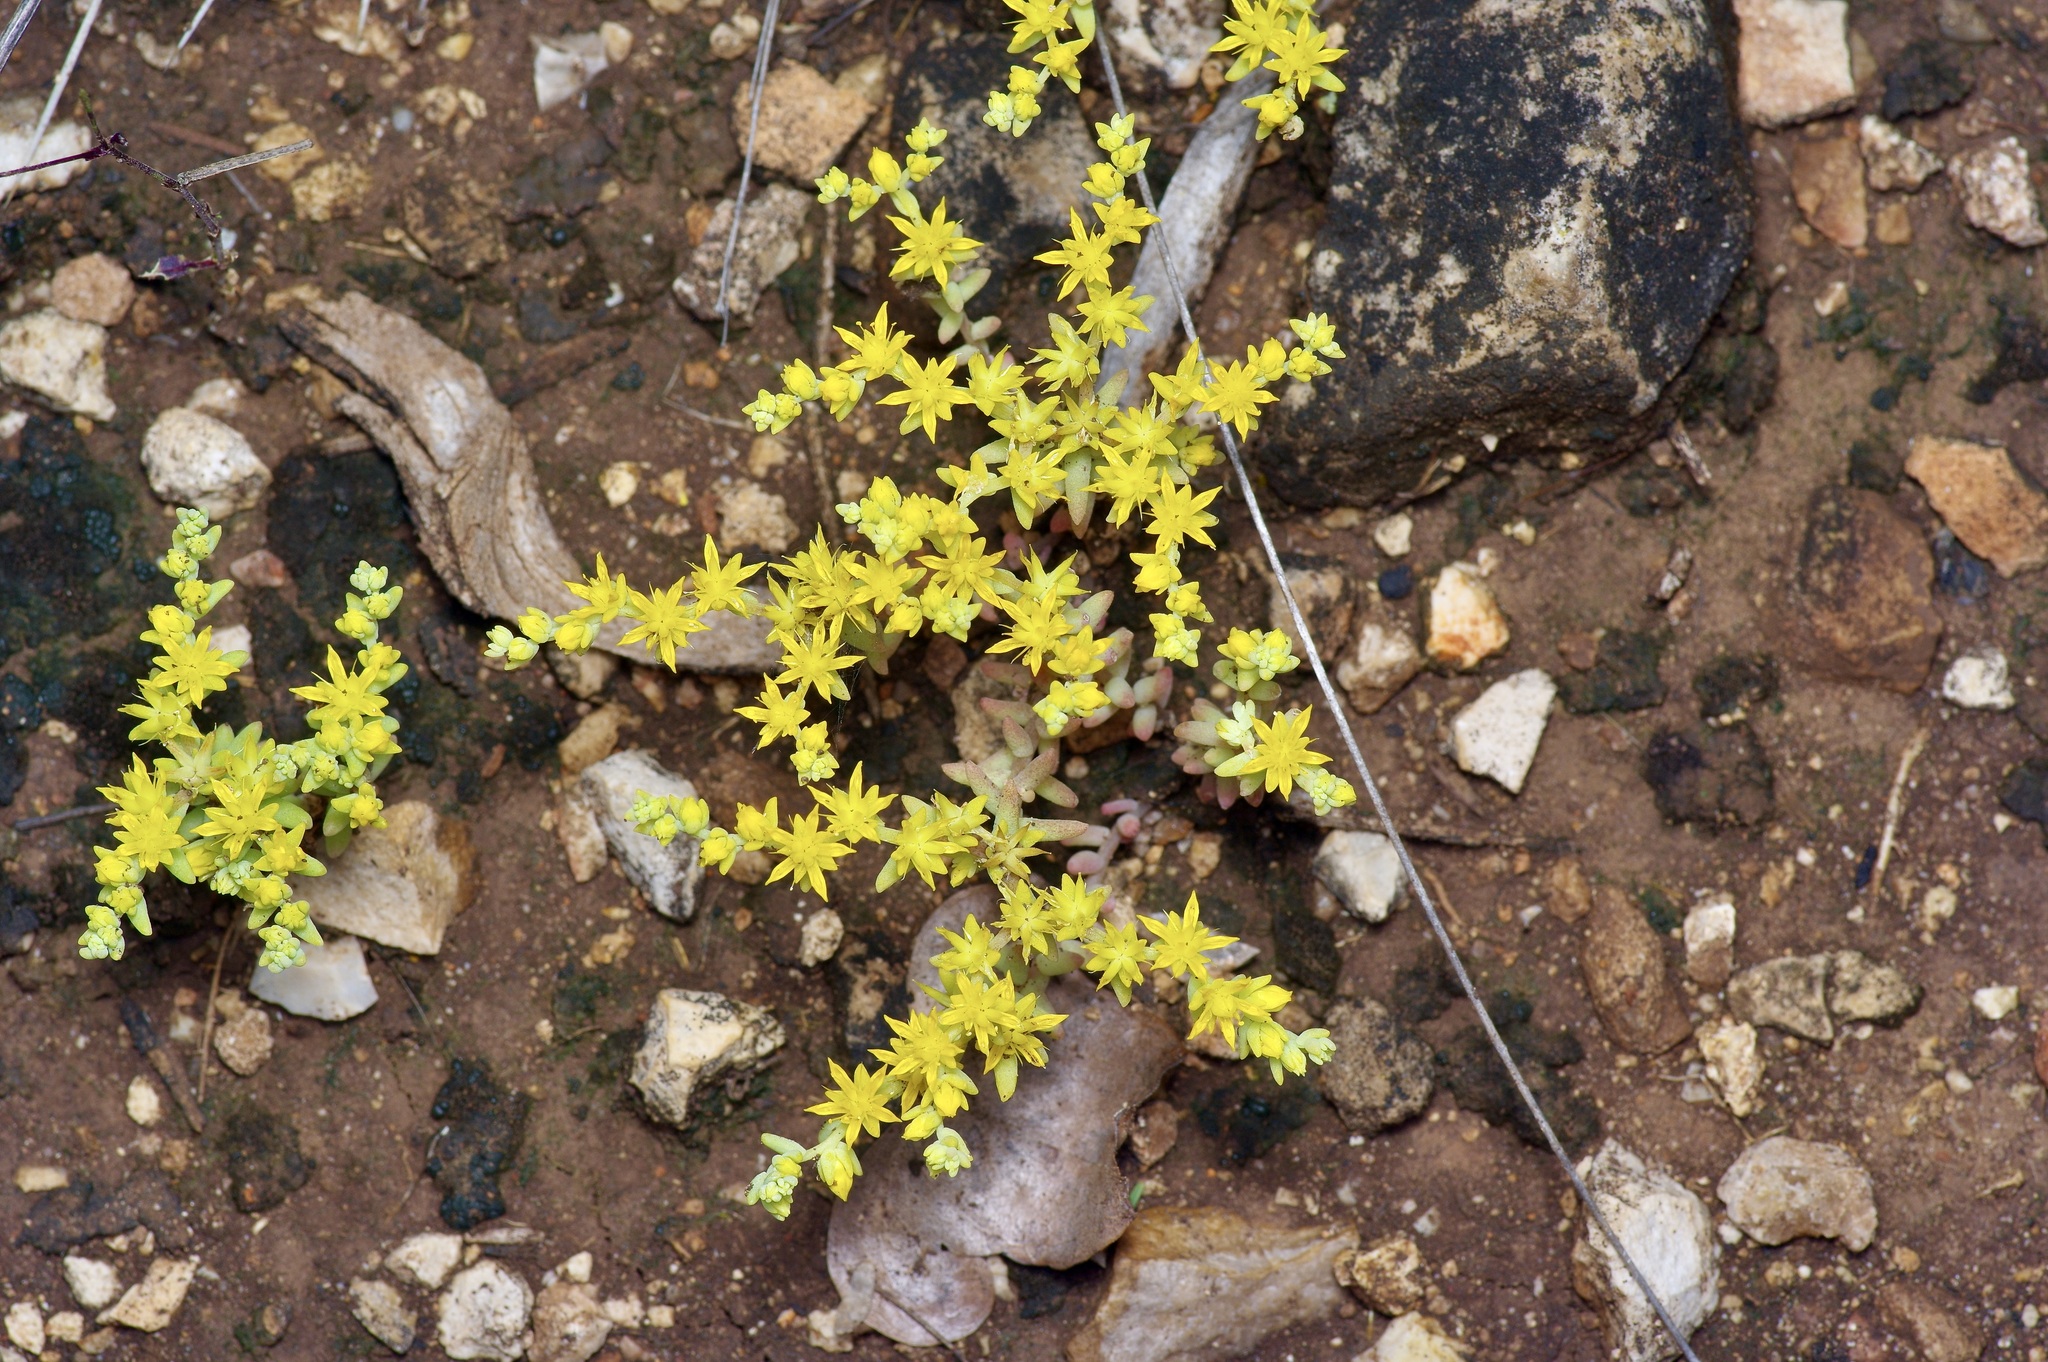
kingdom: Plantae
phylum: Tracheophyta
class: Magnoliopsida
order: Saxifragales
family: Crassulaceae
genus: Sedum
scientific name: Sedum nuttallii
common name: Yellow stonecrop
